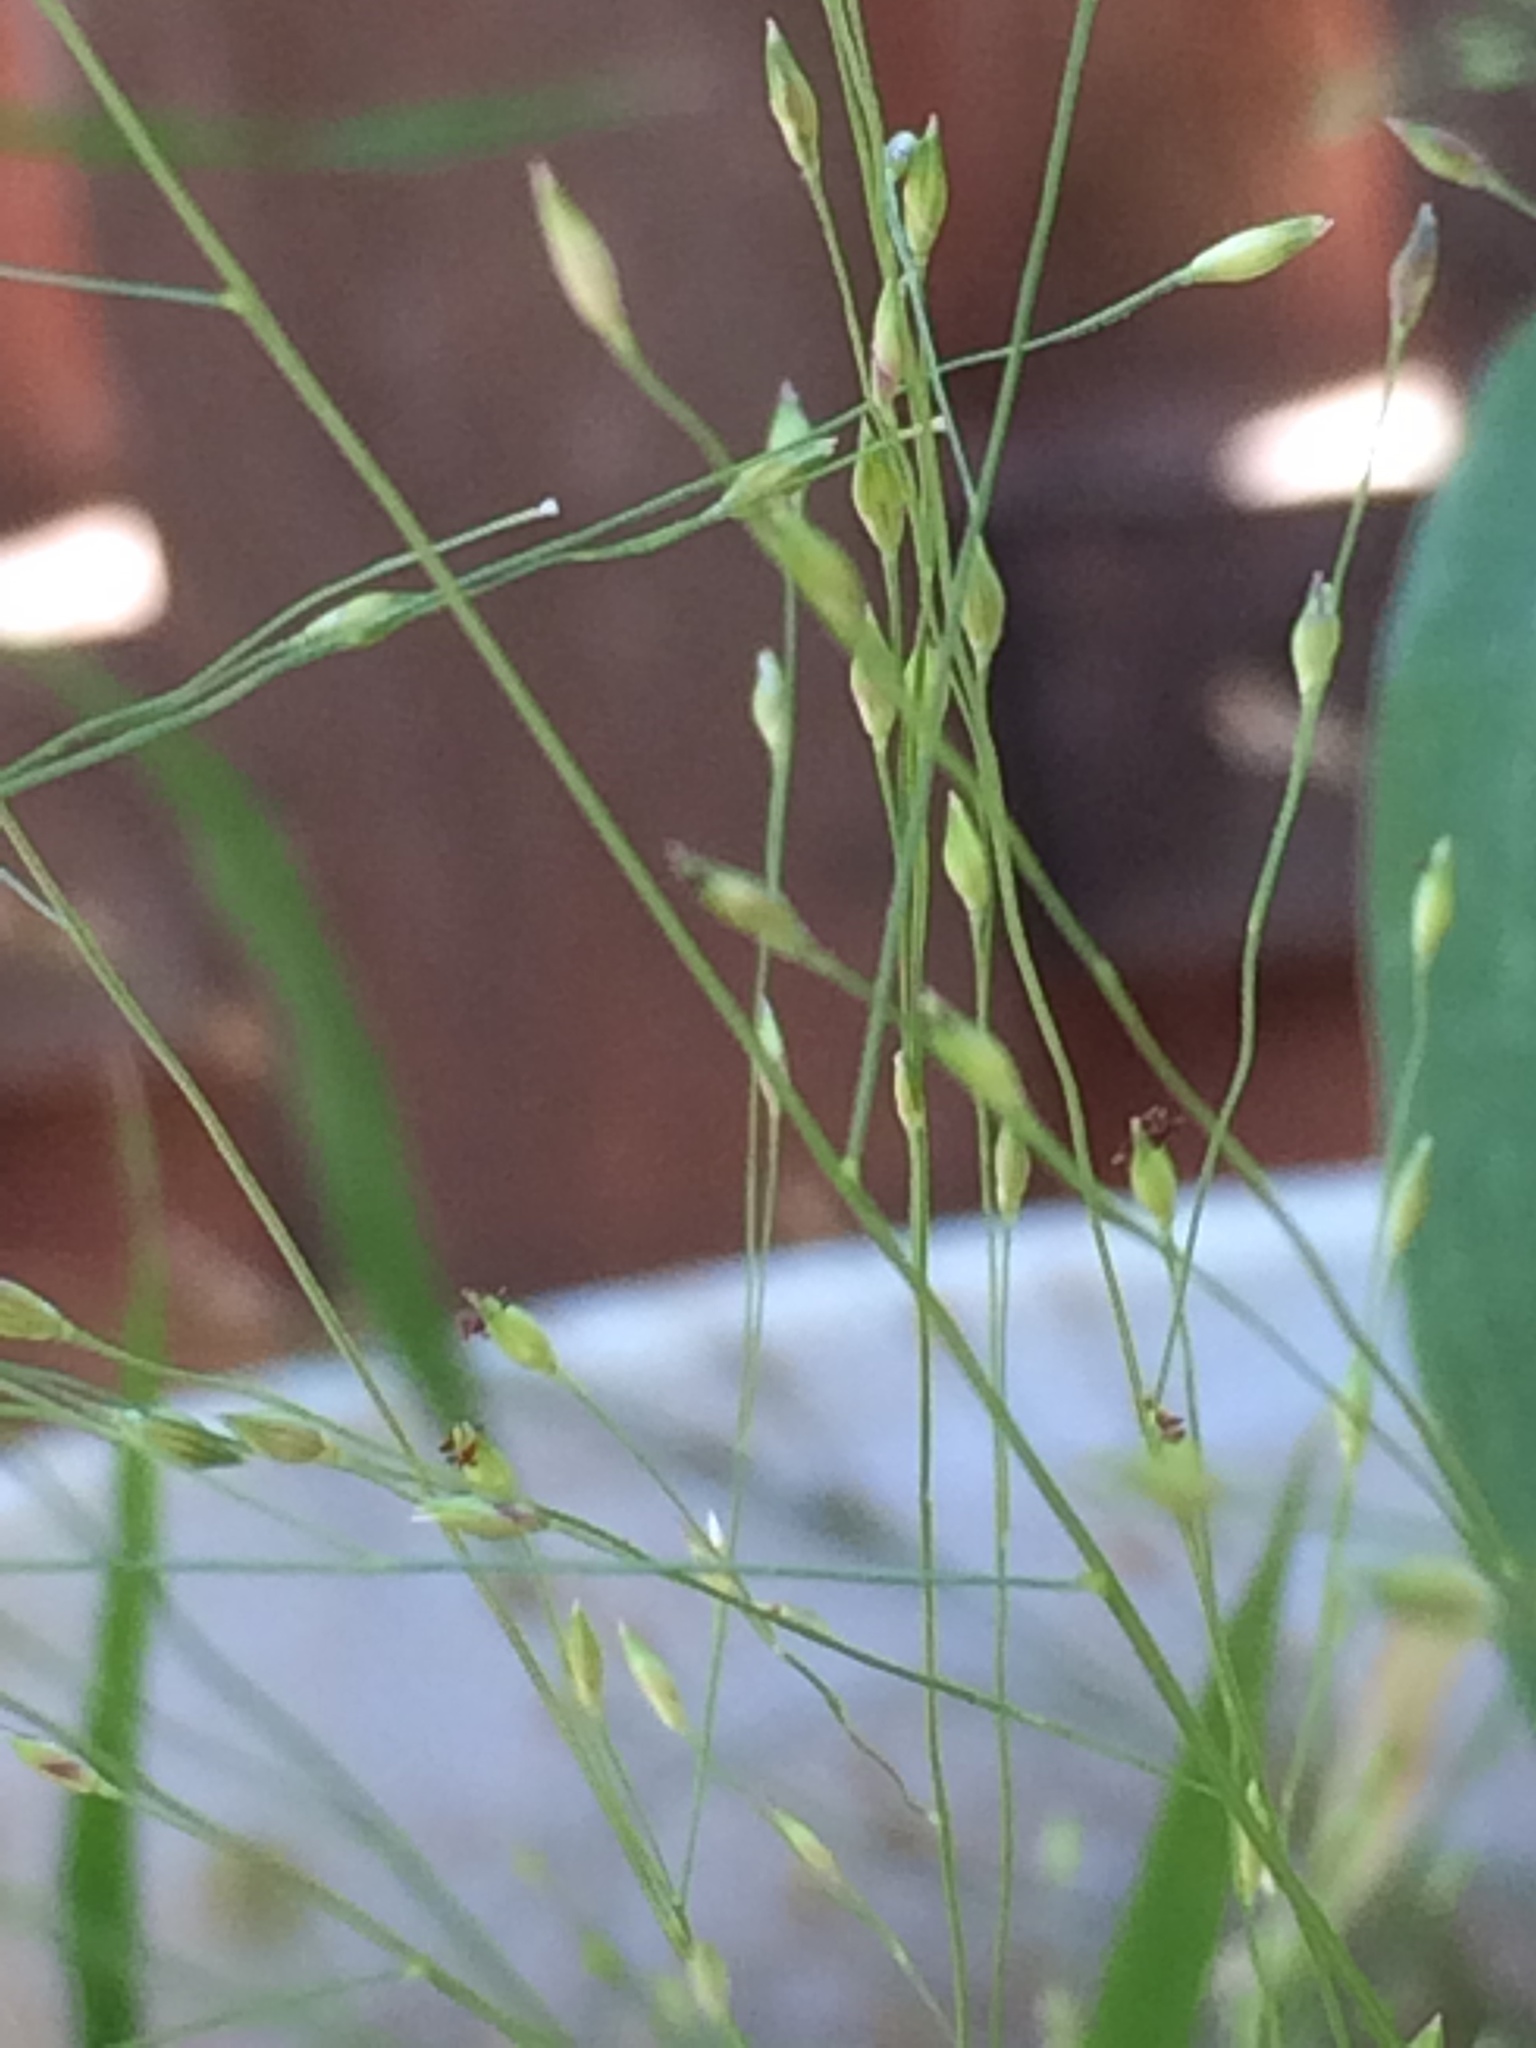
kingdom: Plantae
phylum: Tracheophyta
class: Liliopsida
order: Poales
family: Poaceae
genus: Panicum
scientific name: Panicum capillare
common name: Witch-grass
